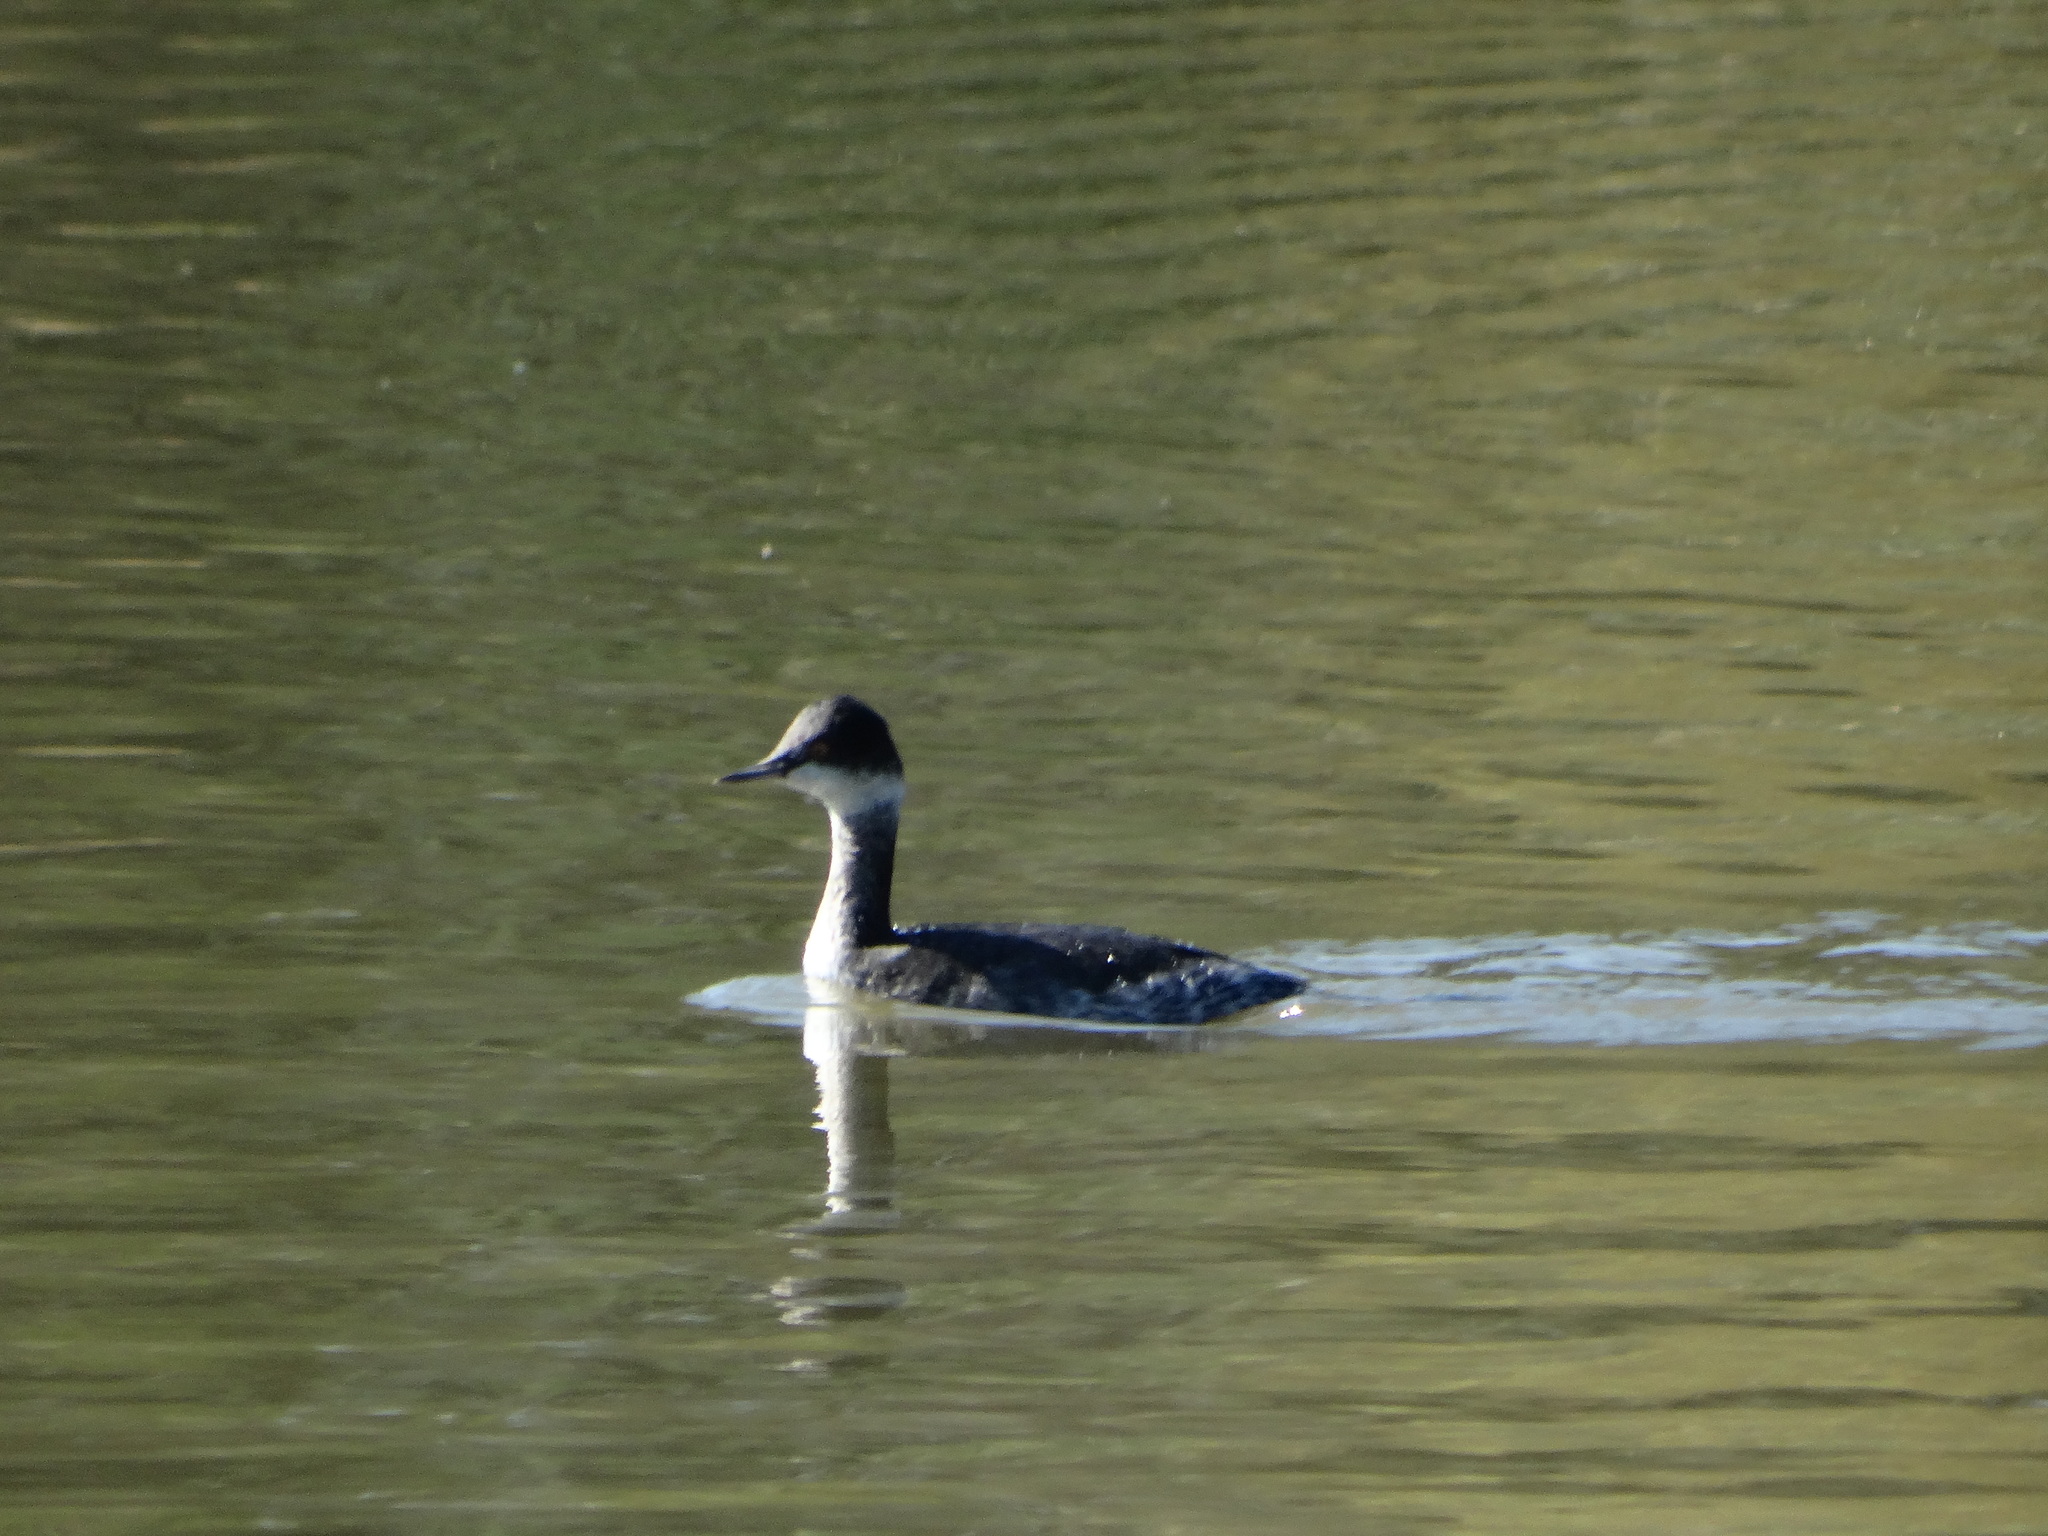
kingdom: Animalia
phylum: Chordata
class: Aves
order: Podicipediformes
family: Podicipedidae
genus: Podiceps
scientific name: Podiceps nigricollis
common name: Black-necked grebe
